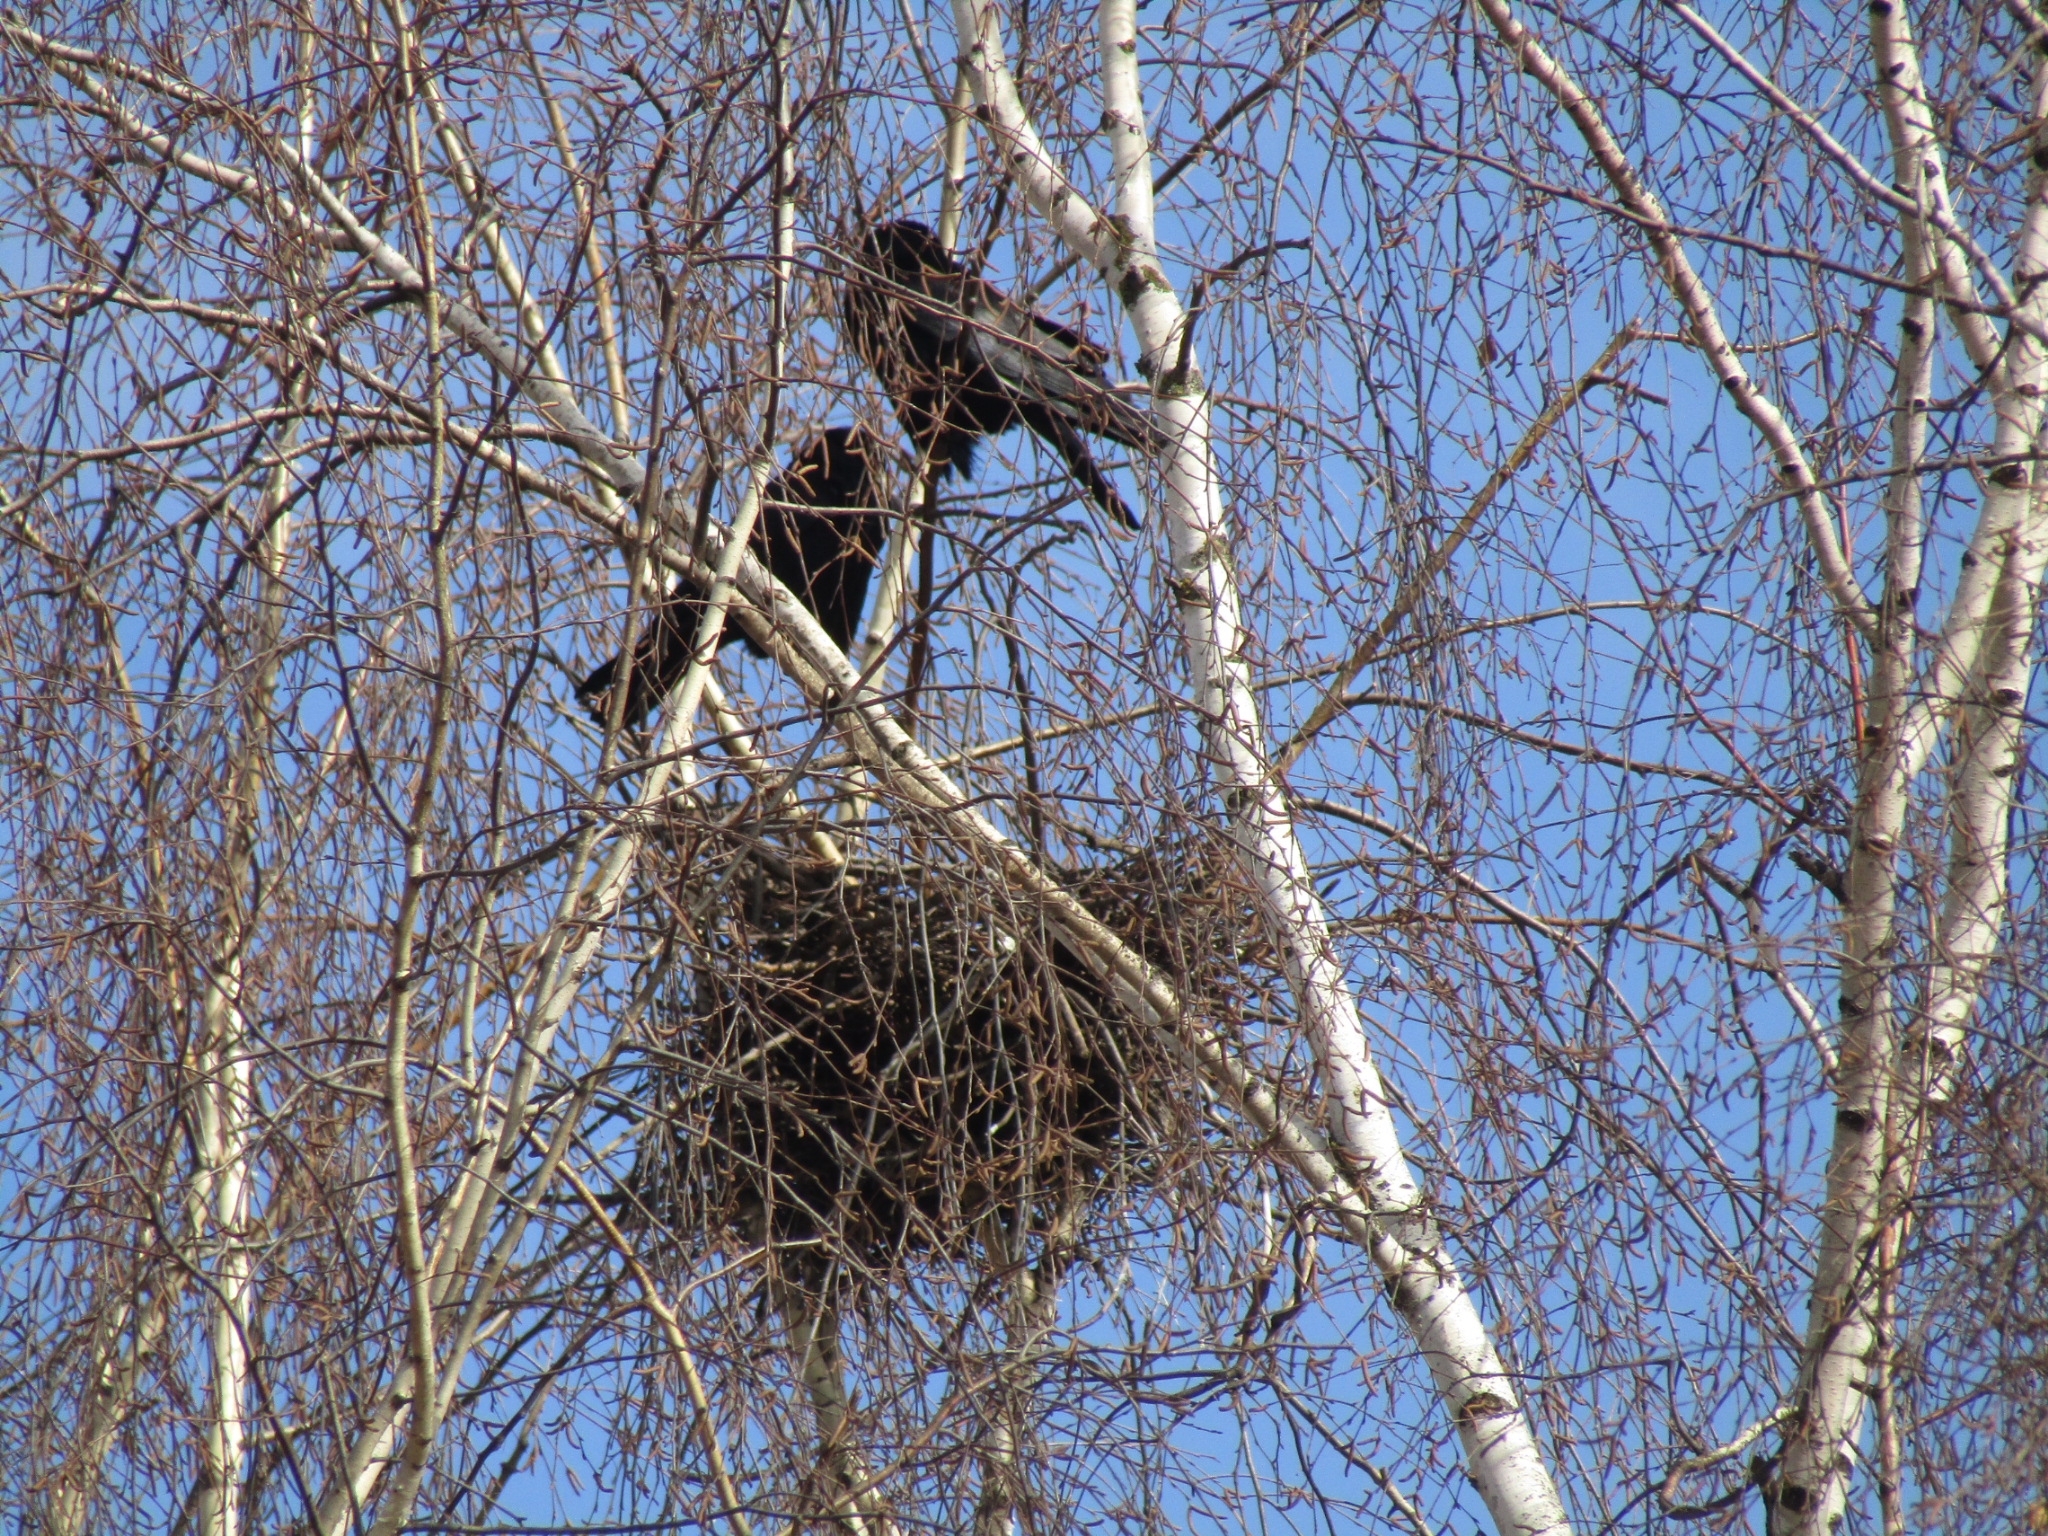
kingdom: Animalia
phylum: Chordata
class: Aves
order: Passeriformes
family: Corvidae
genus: Corvus
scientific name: Corvus frugilegus
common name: Rook
